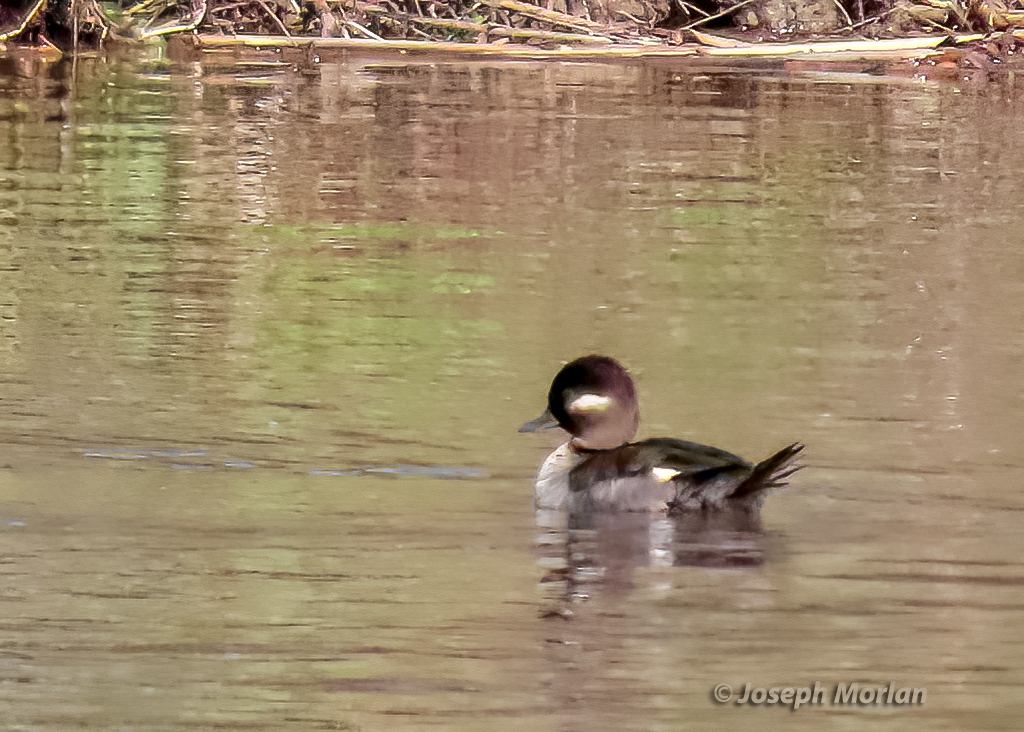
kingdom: Animalia
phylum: Chordata
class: Aves
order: Anseriformes
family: Anatidae
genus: Bucephala
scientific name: Bucephala albeola
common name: Bufflehead
